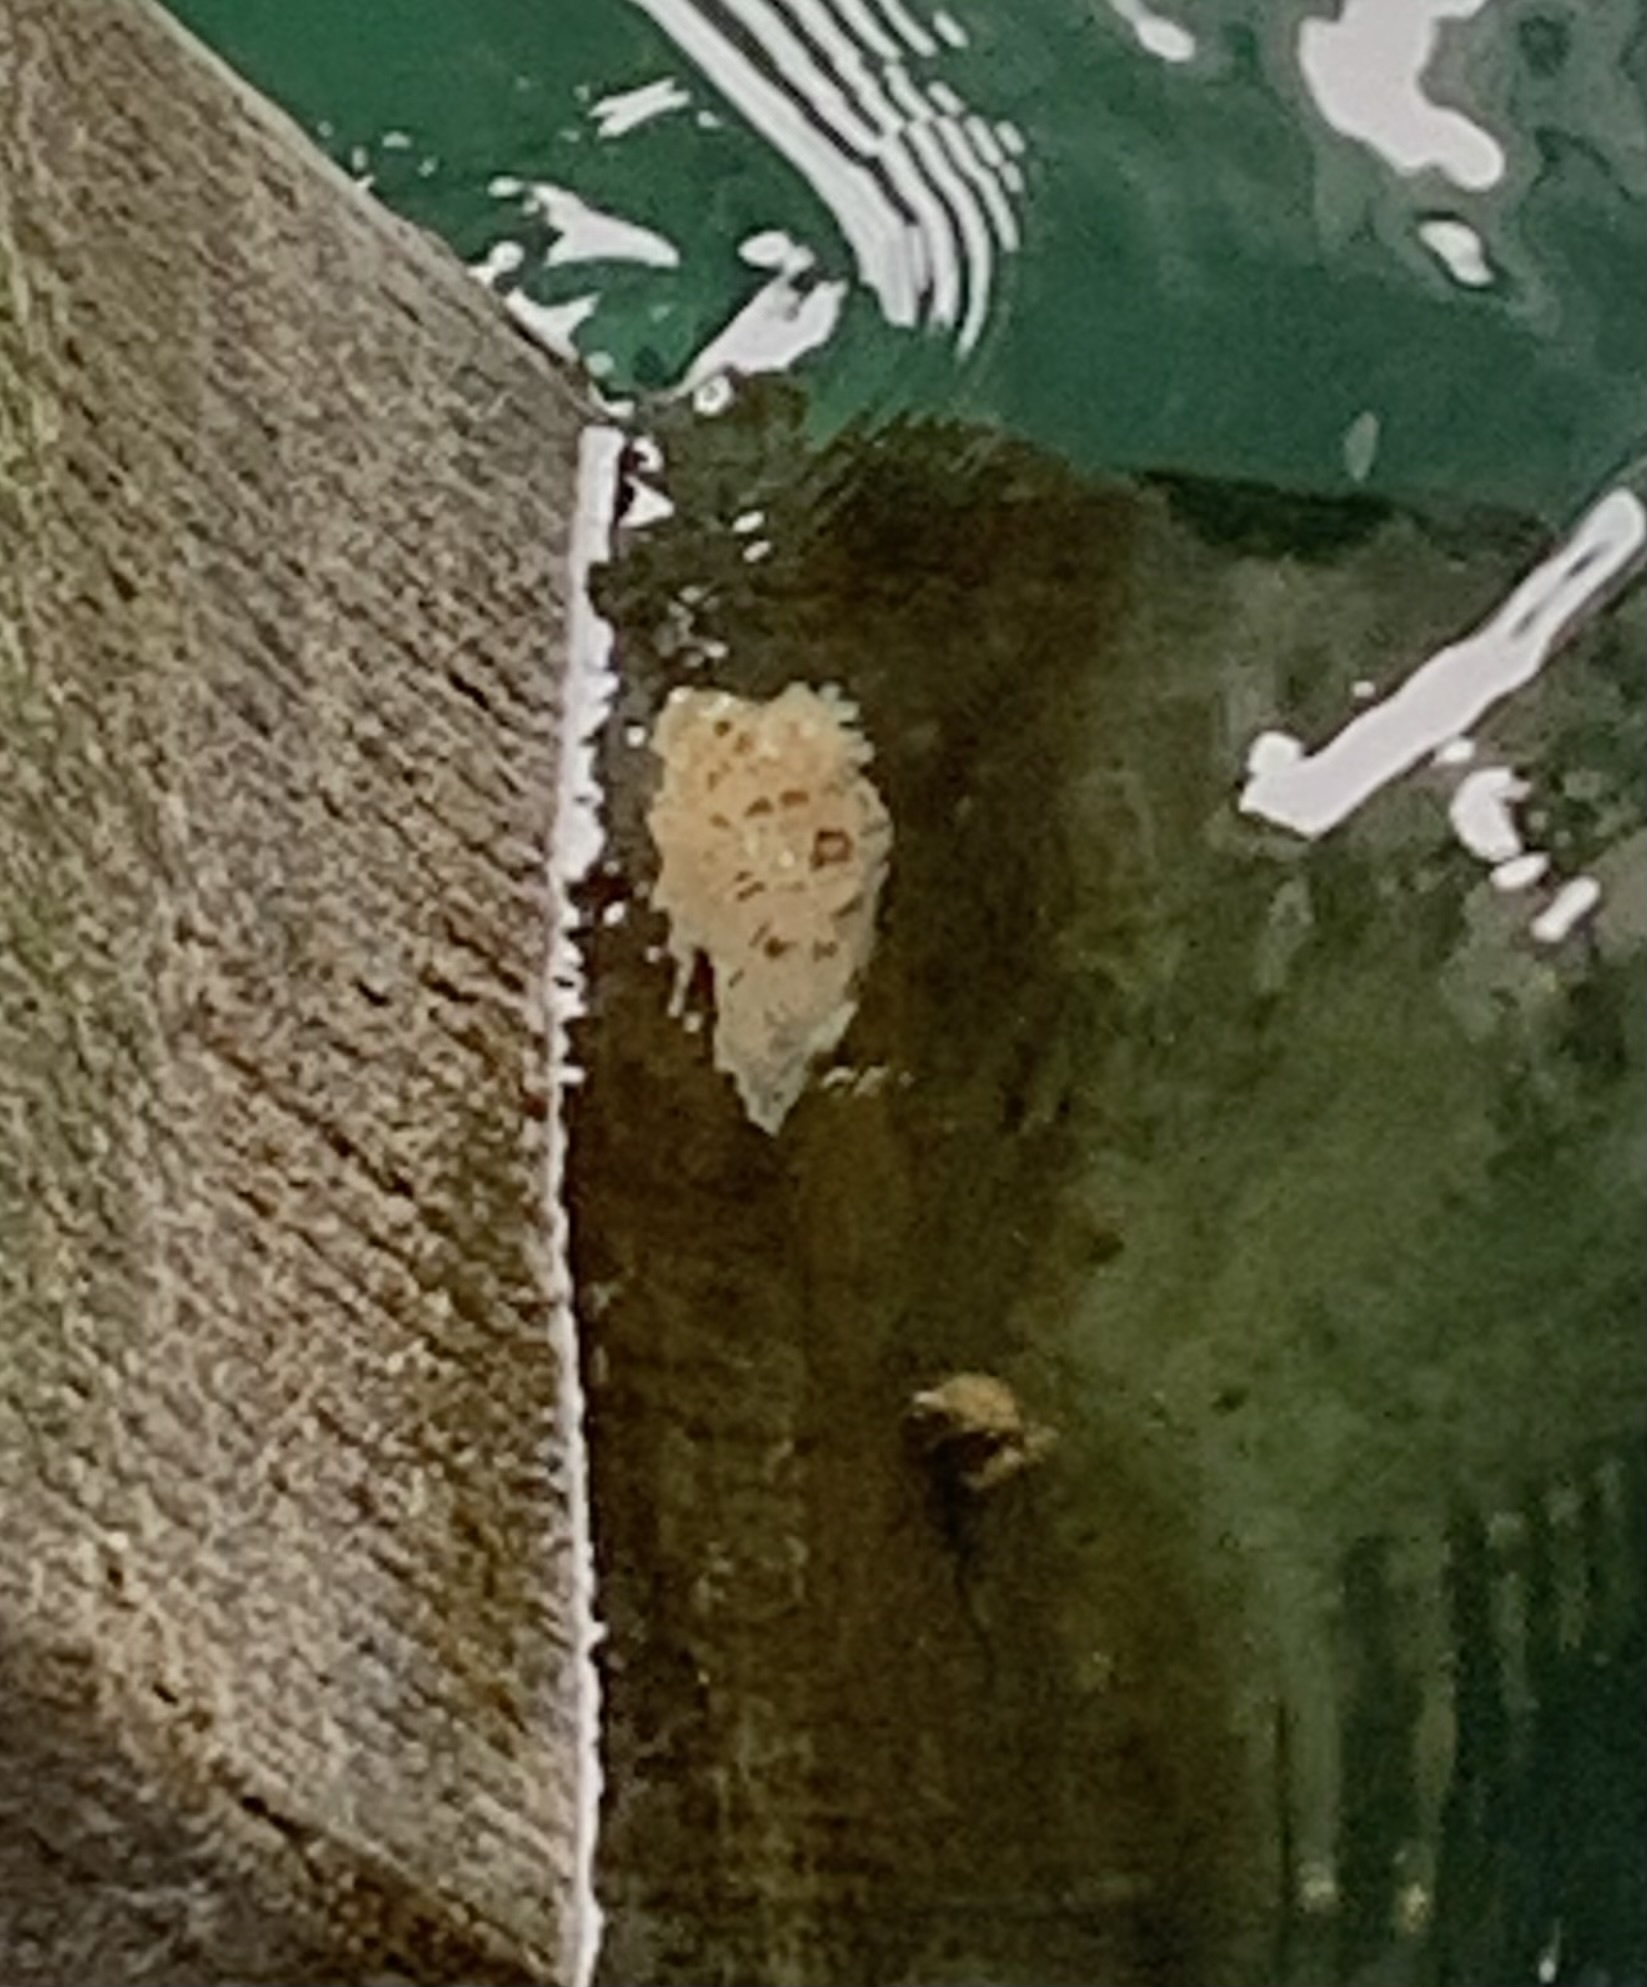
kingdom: Animalia
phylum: Mollusca
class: Gastropoda
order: Nudibranchia
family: Discodorididae
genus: Diaulula
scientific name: Diaulula odonoghuei
